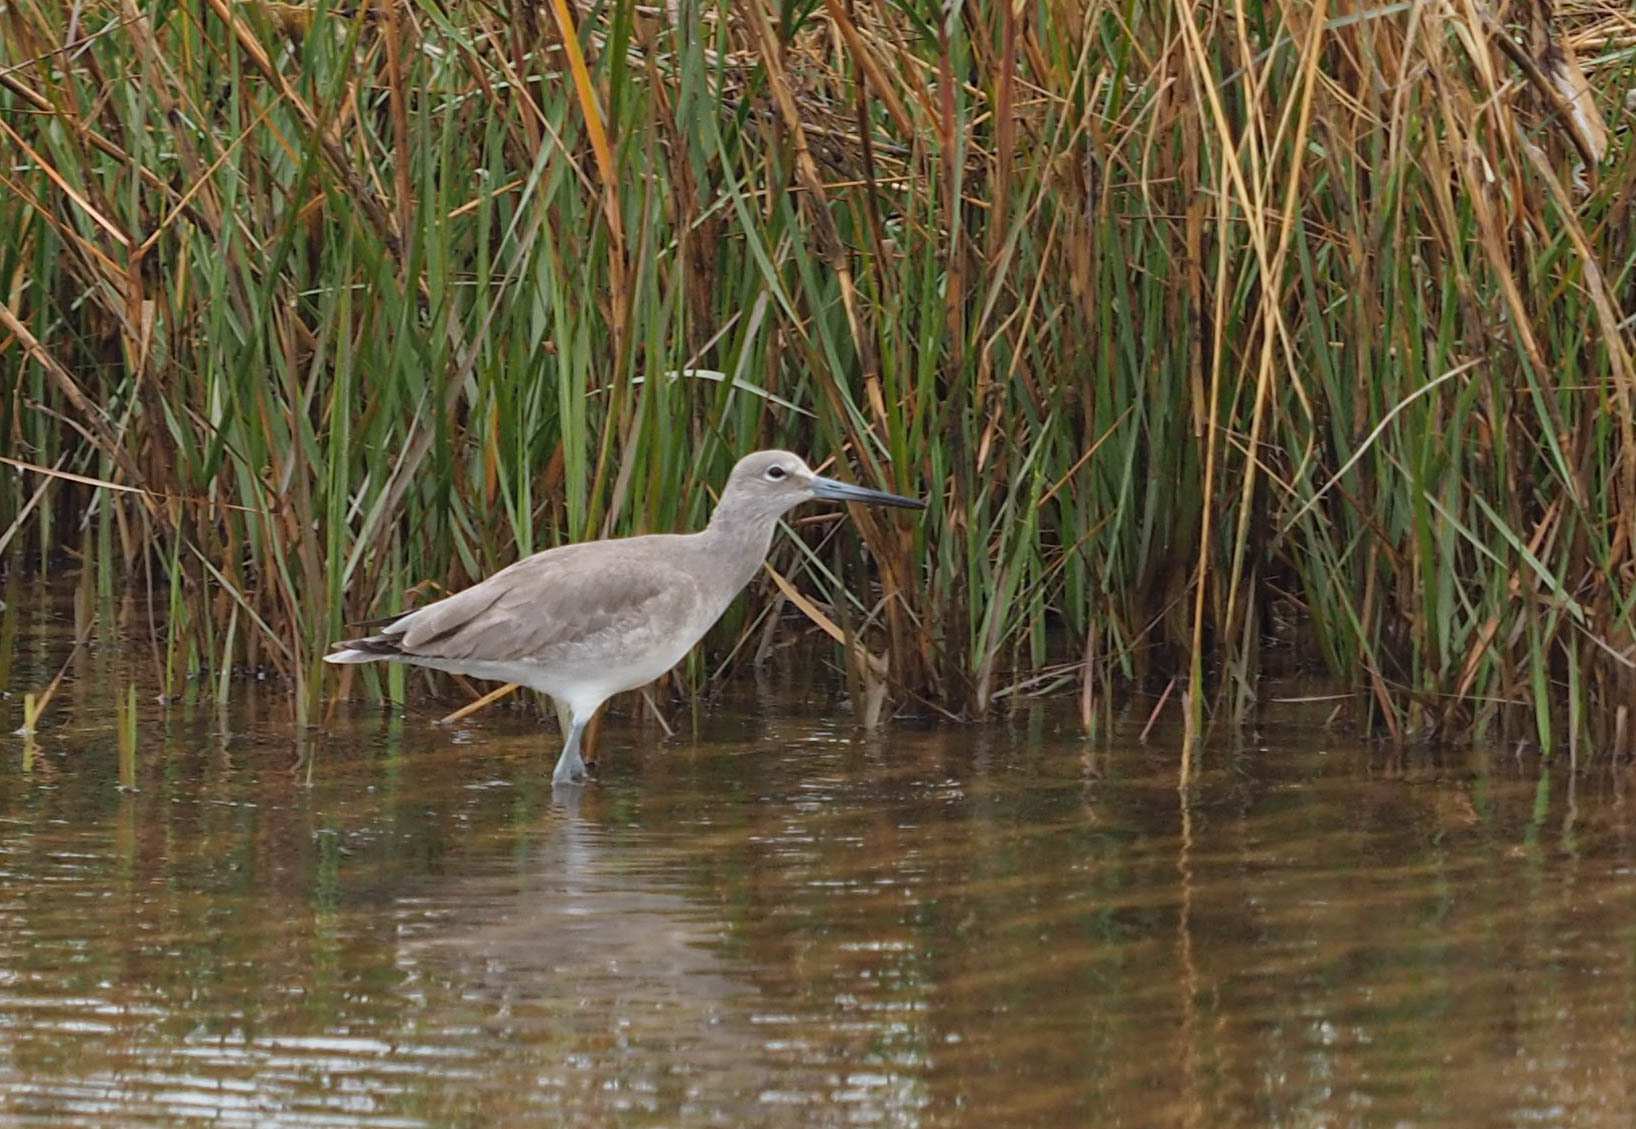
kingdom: Animalia
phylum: Chordata
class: Aves
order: Charadriiformes
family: Scolopacidae
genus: Tringa
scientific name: Tringa semipalmata
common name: Willet
